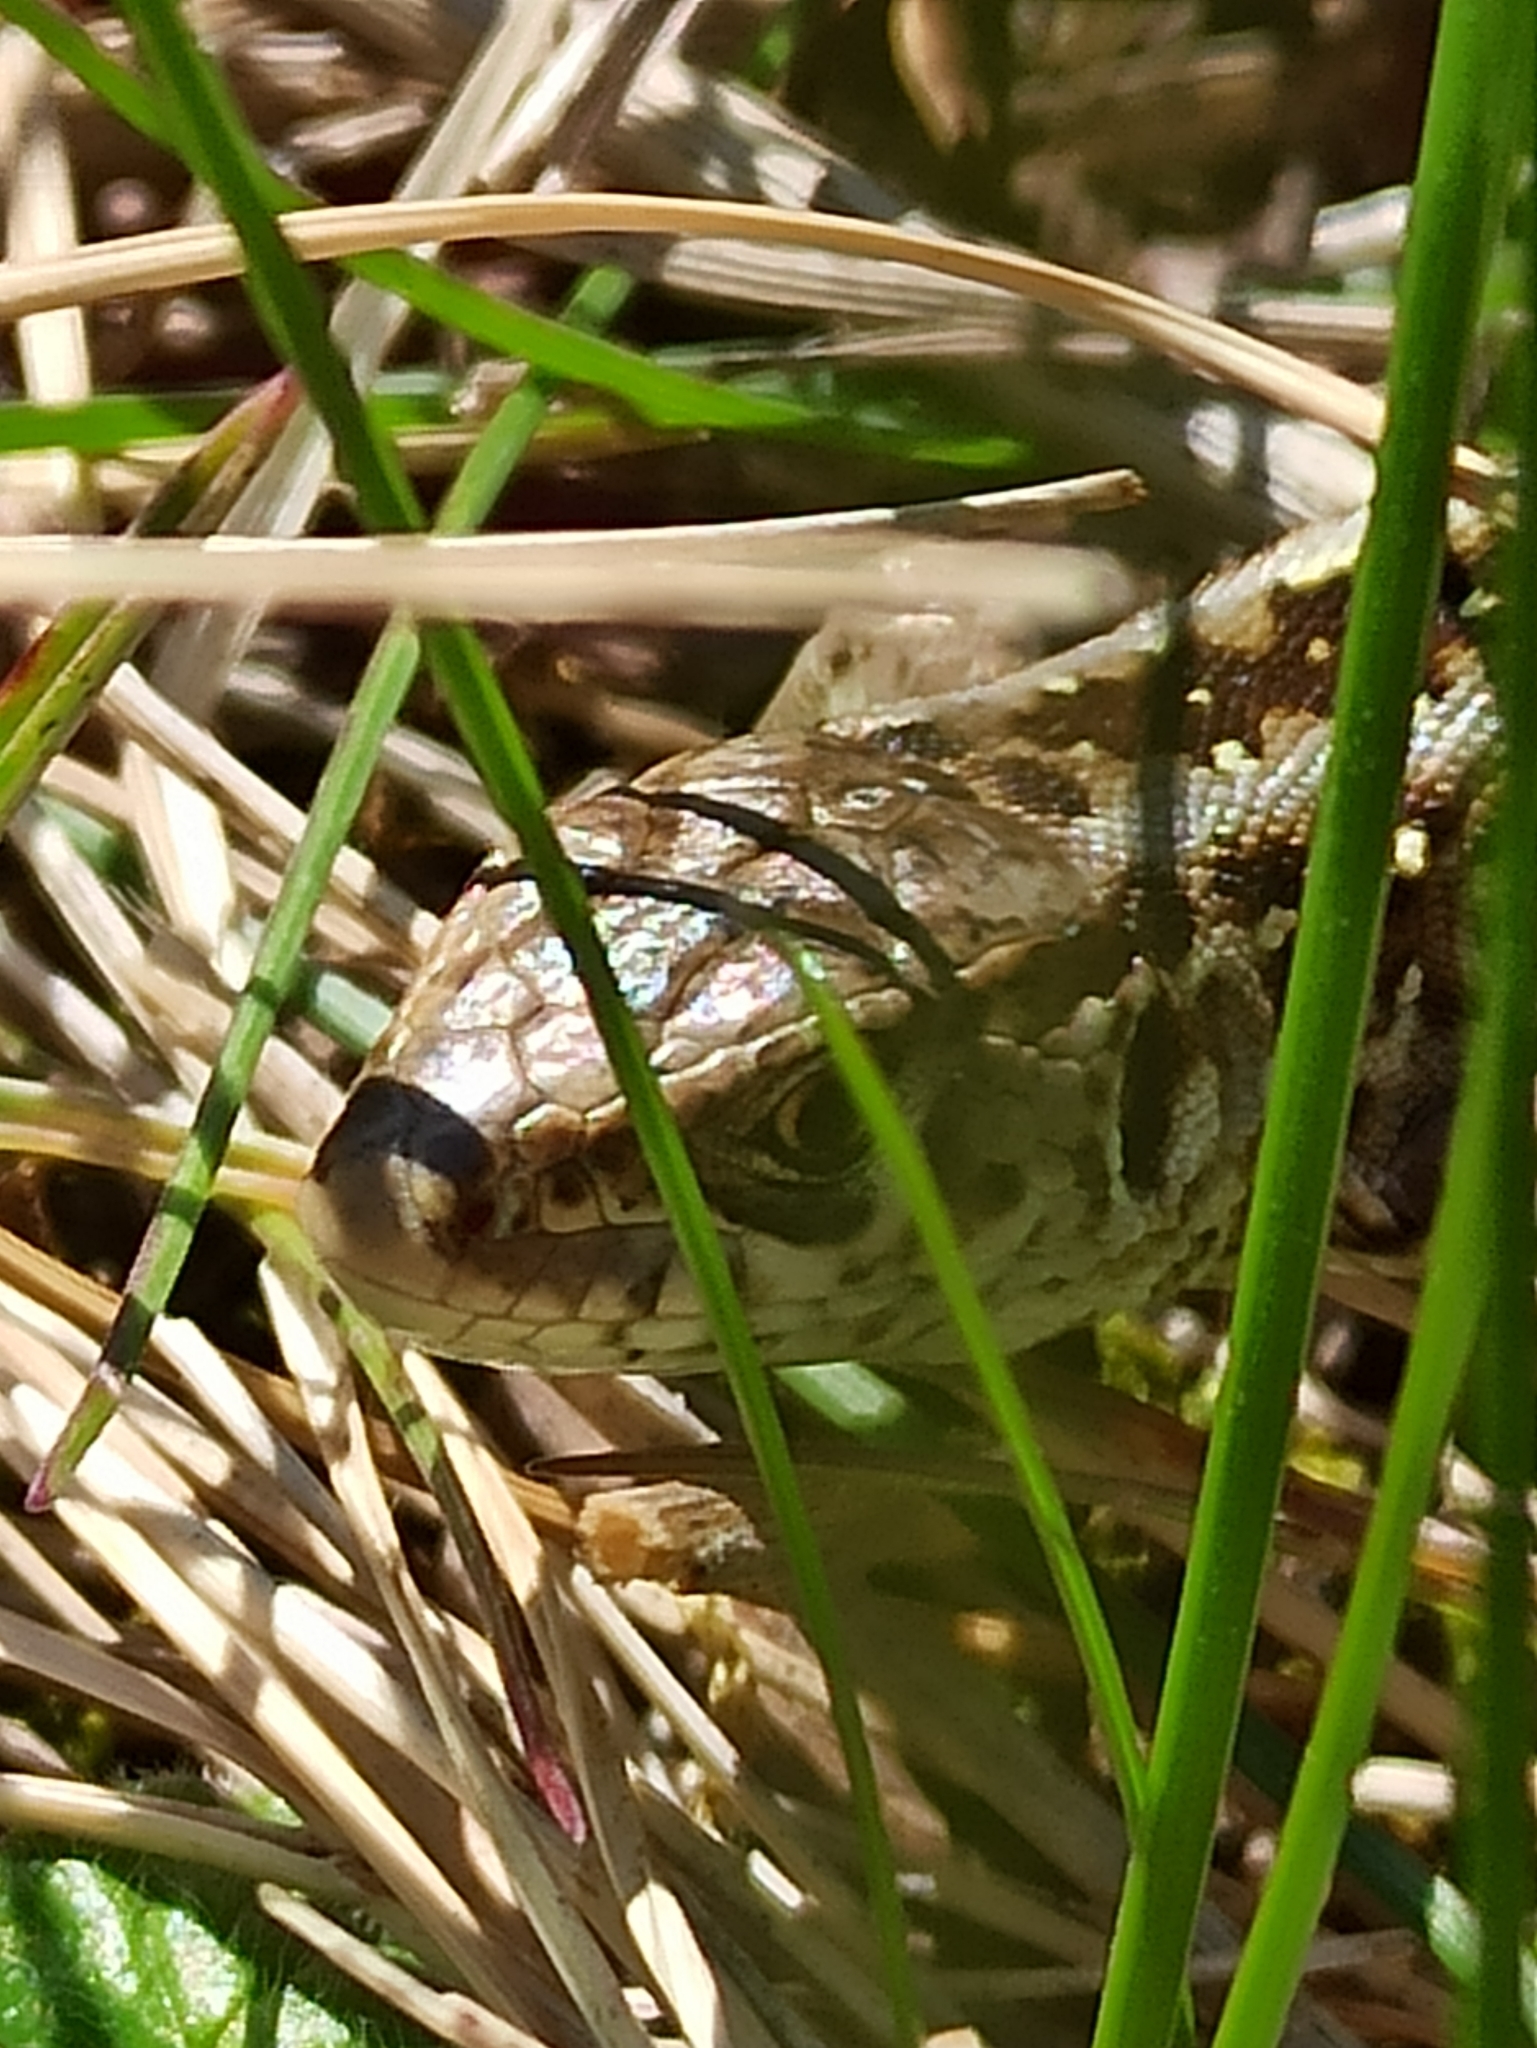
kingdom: Animalia
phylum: Chordata
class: Squamata
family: Lacertidae
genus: Lacerta
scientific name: Lacerta agilis
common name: Sand lizard
